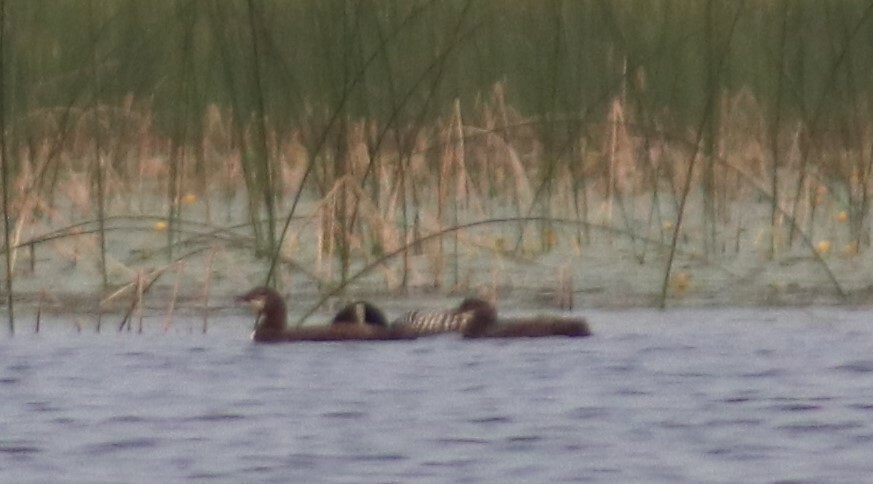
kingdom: Animalia
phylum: Chordata
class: Aves
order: Gaviiformes
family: Gaviidae
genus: Gavia
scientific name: Gavia immer
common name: Common loon
